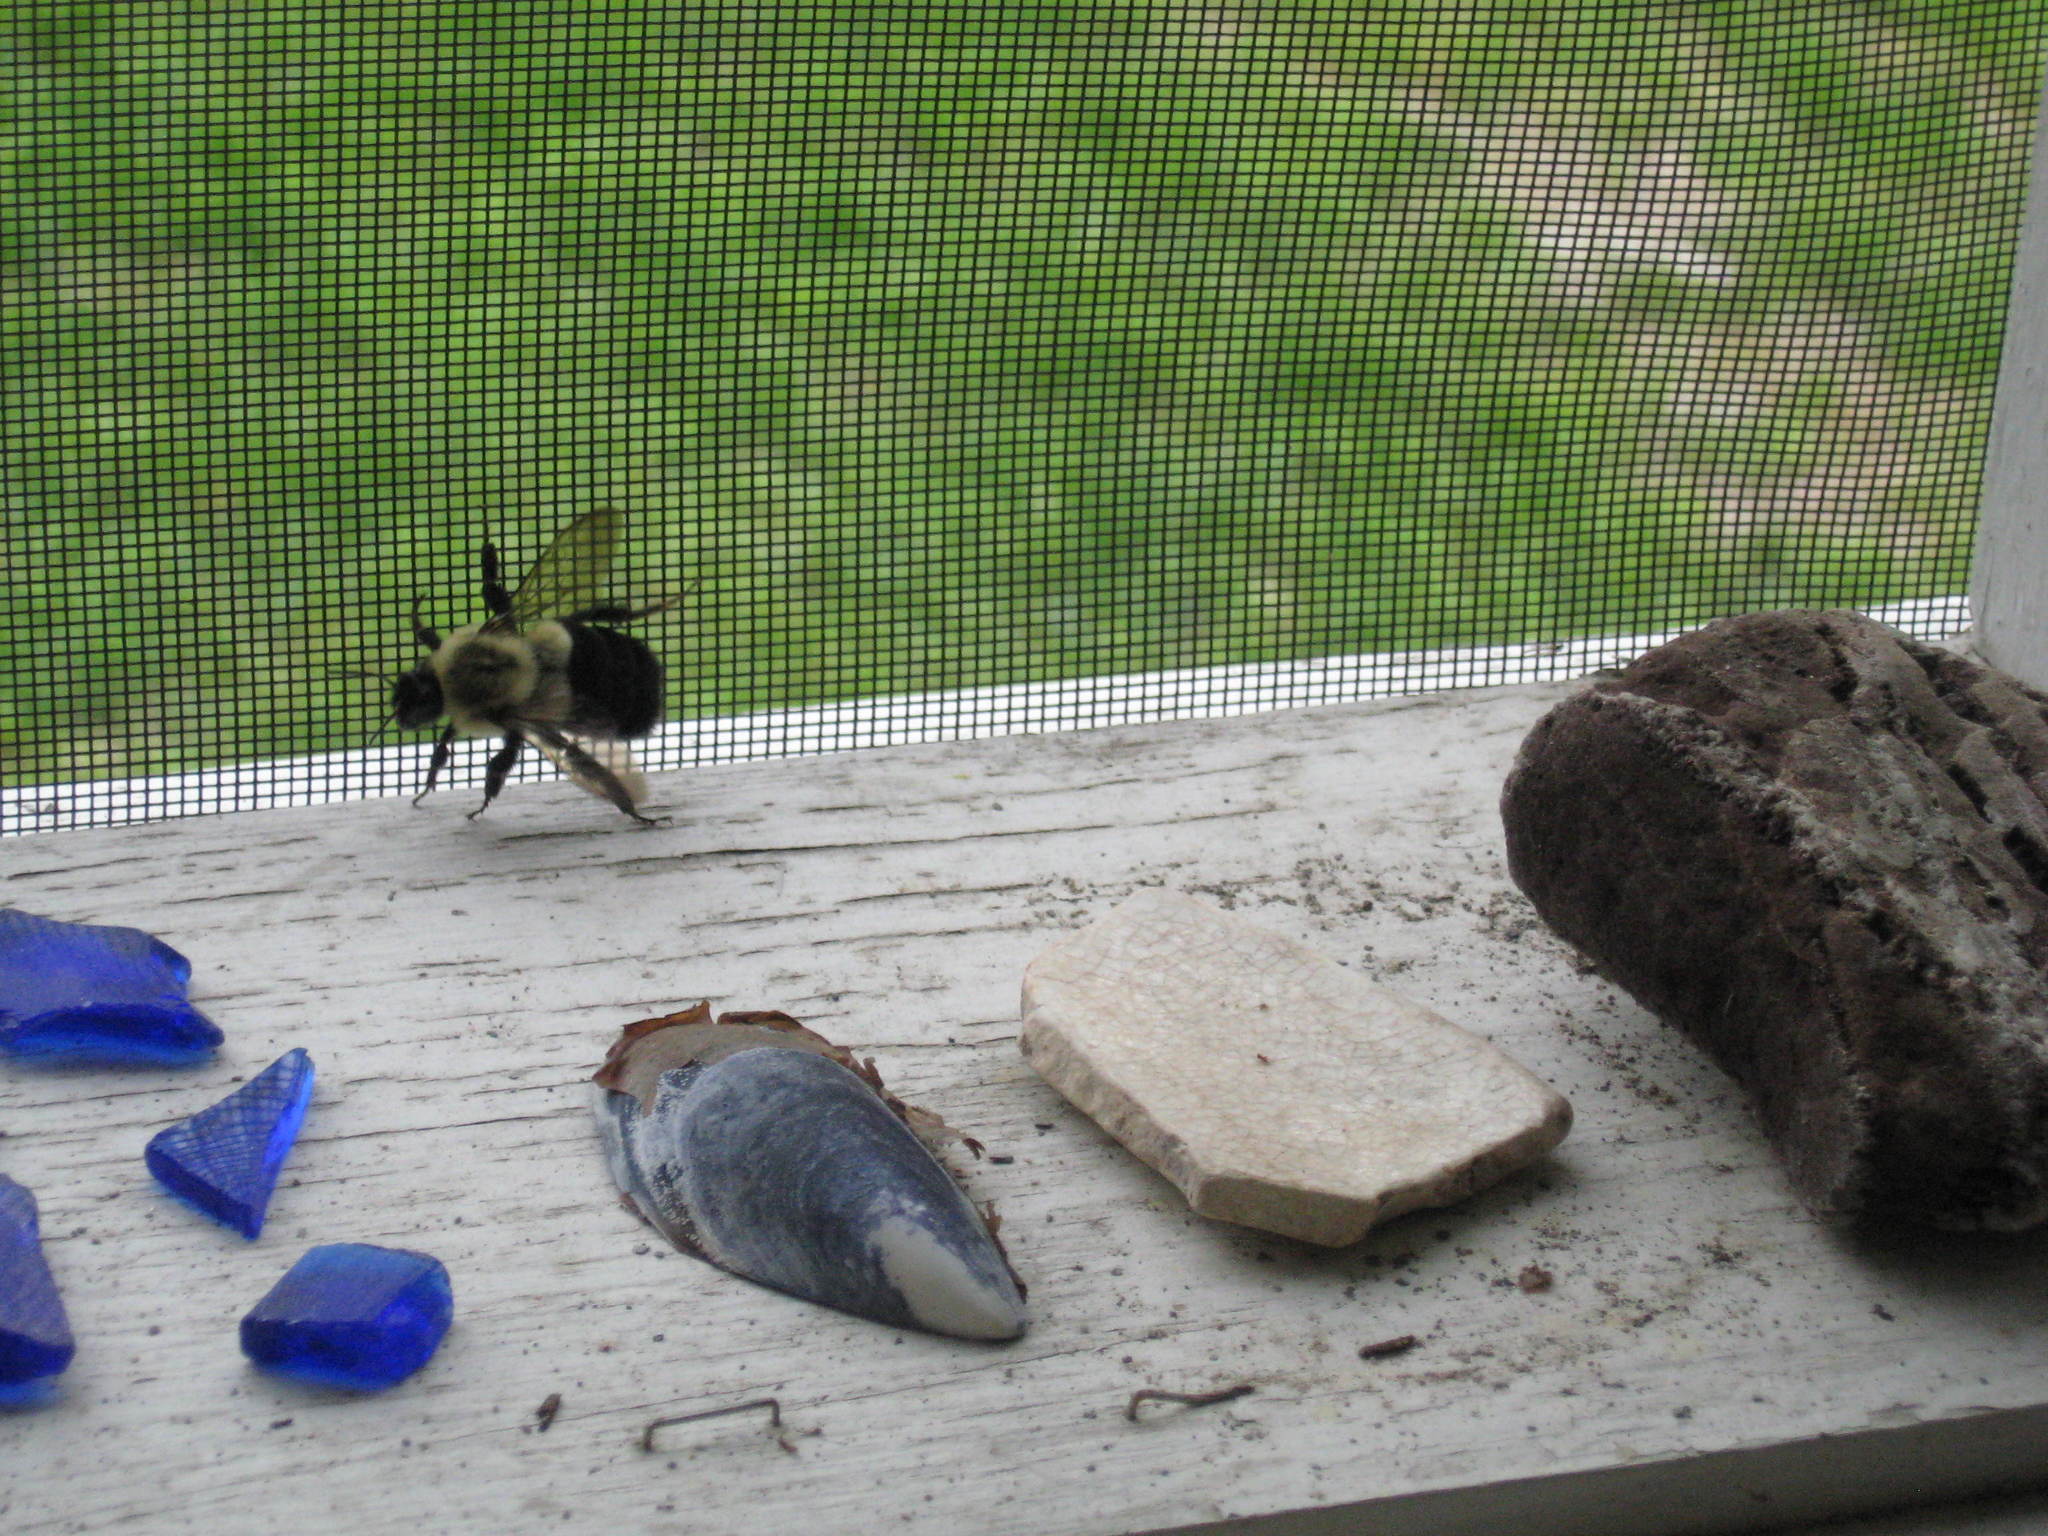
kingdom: Animalia
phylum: Arthropoda
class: Insecta
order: Hymenoptera
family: Apidae
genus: Bombus
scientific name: Bombus impatiens
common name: Common eastern bumble bee
